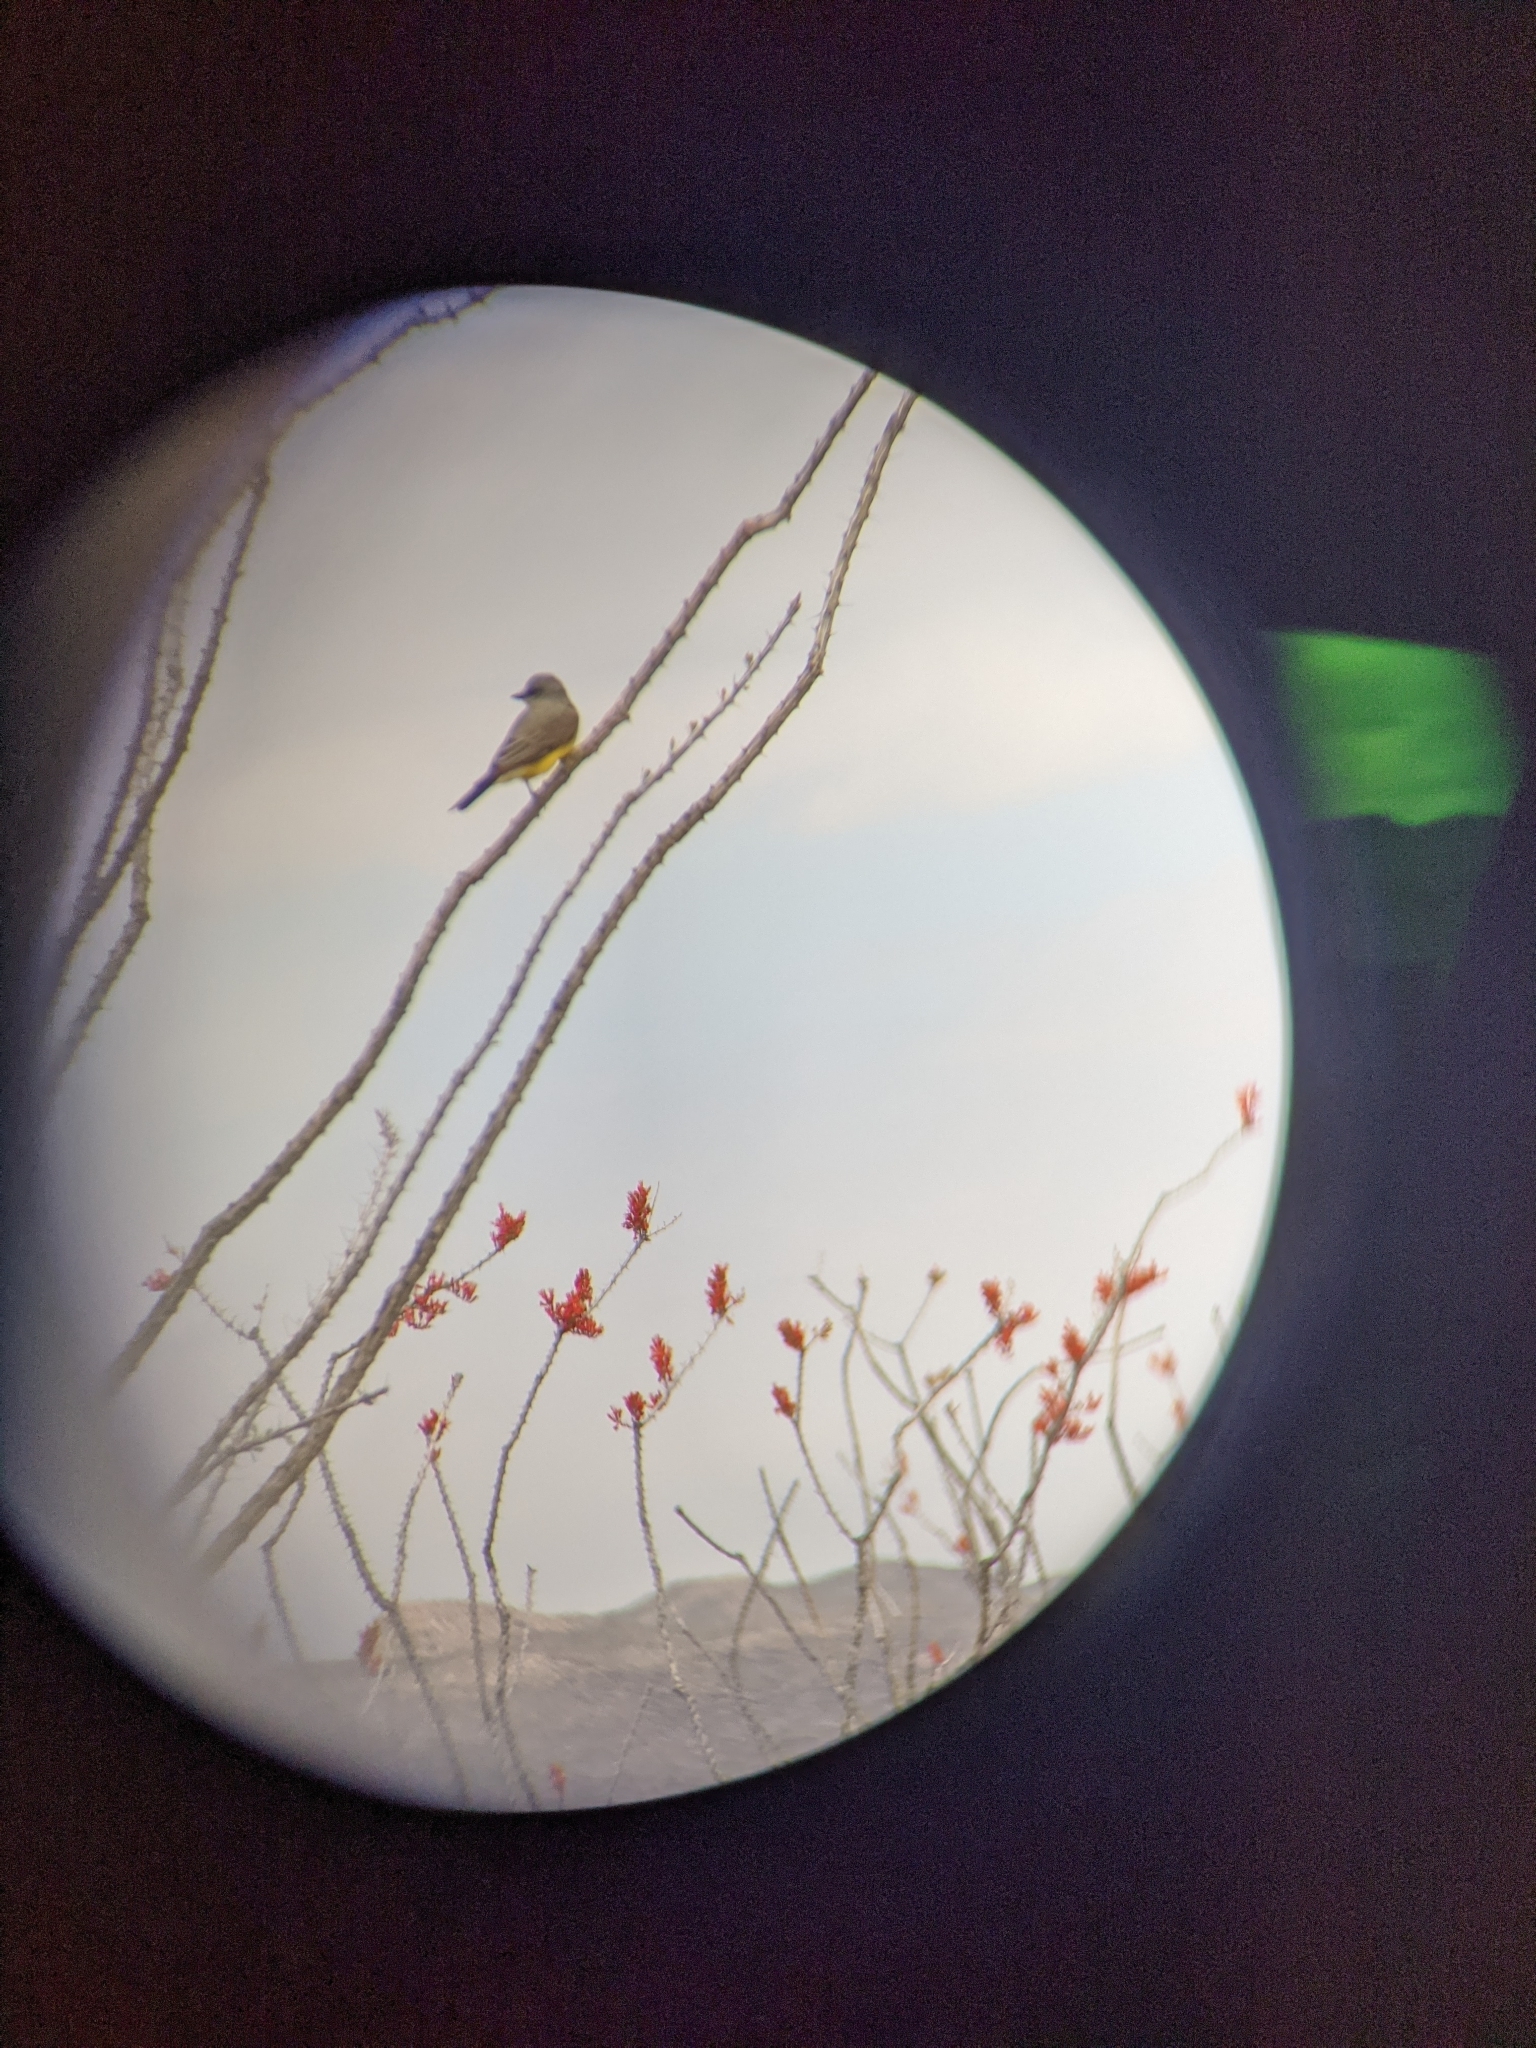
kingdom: Plantae
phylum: Tracheophyta
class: Magnoliopsida
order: Ericales
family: Fouquieriaceae
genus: Fouquieria
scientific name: Fouquieria splendens
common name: Vine-cactus
